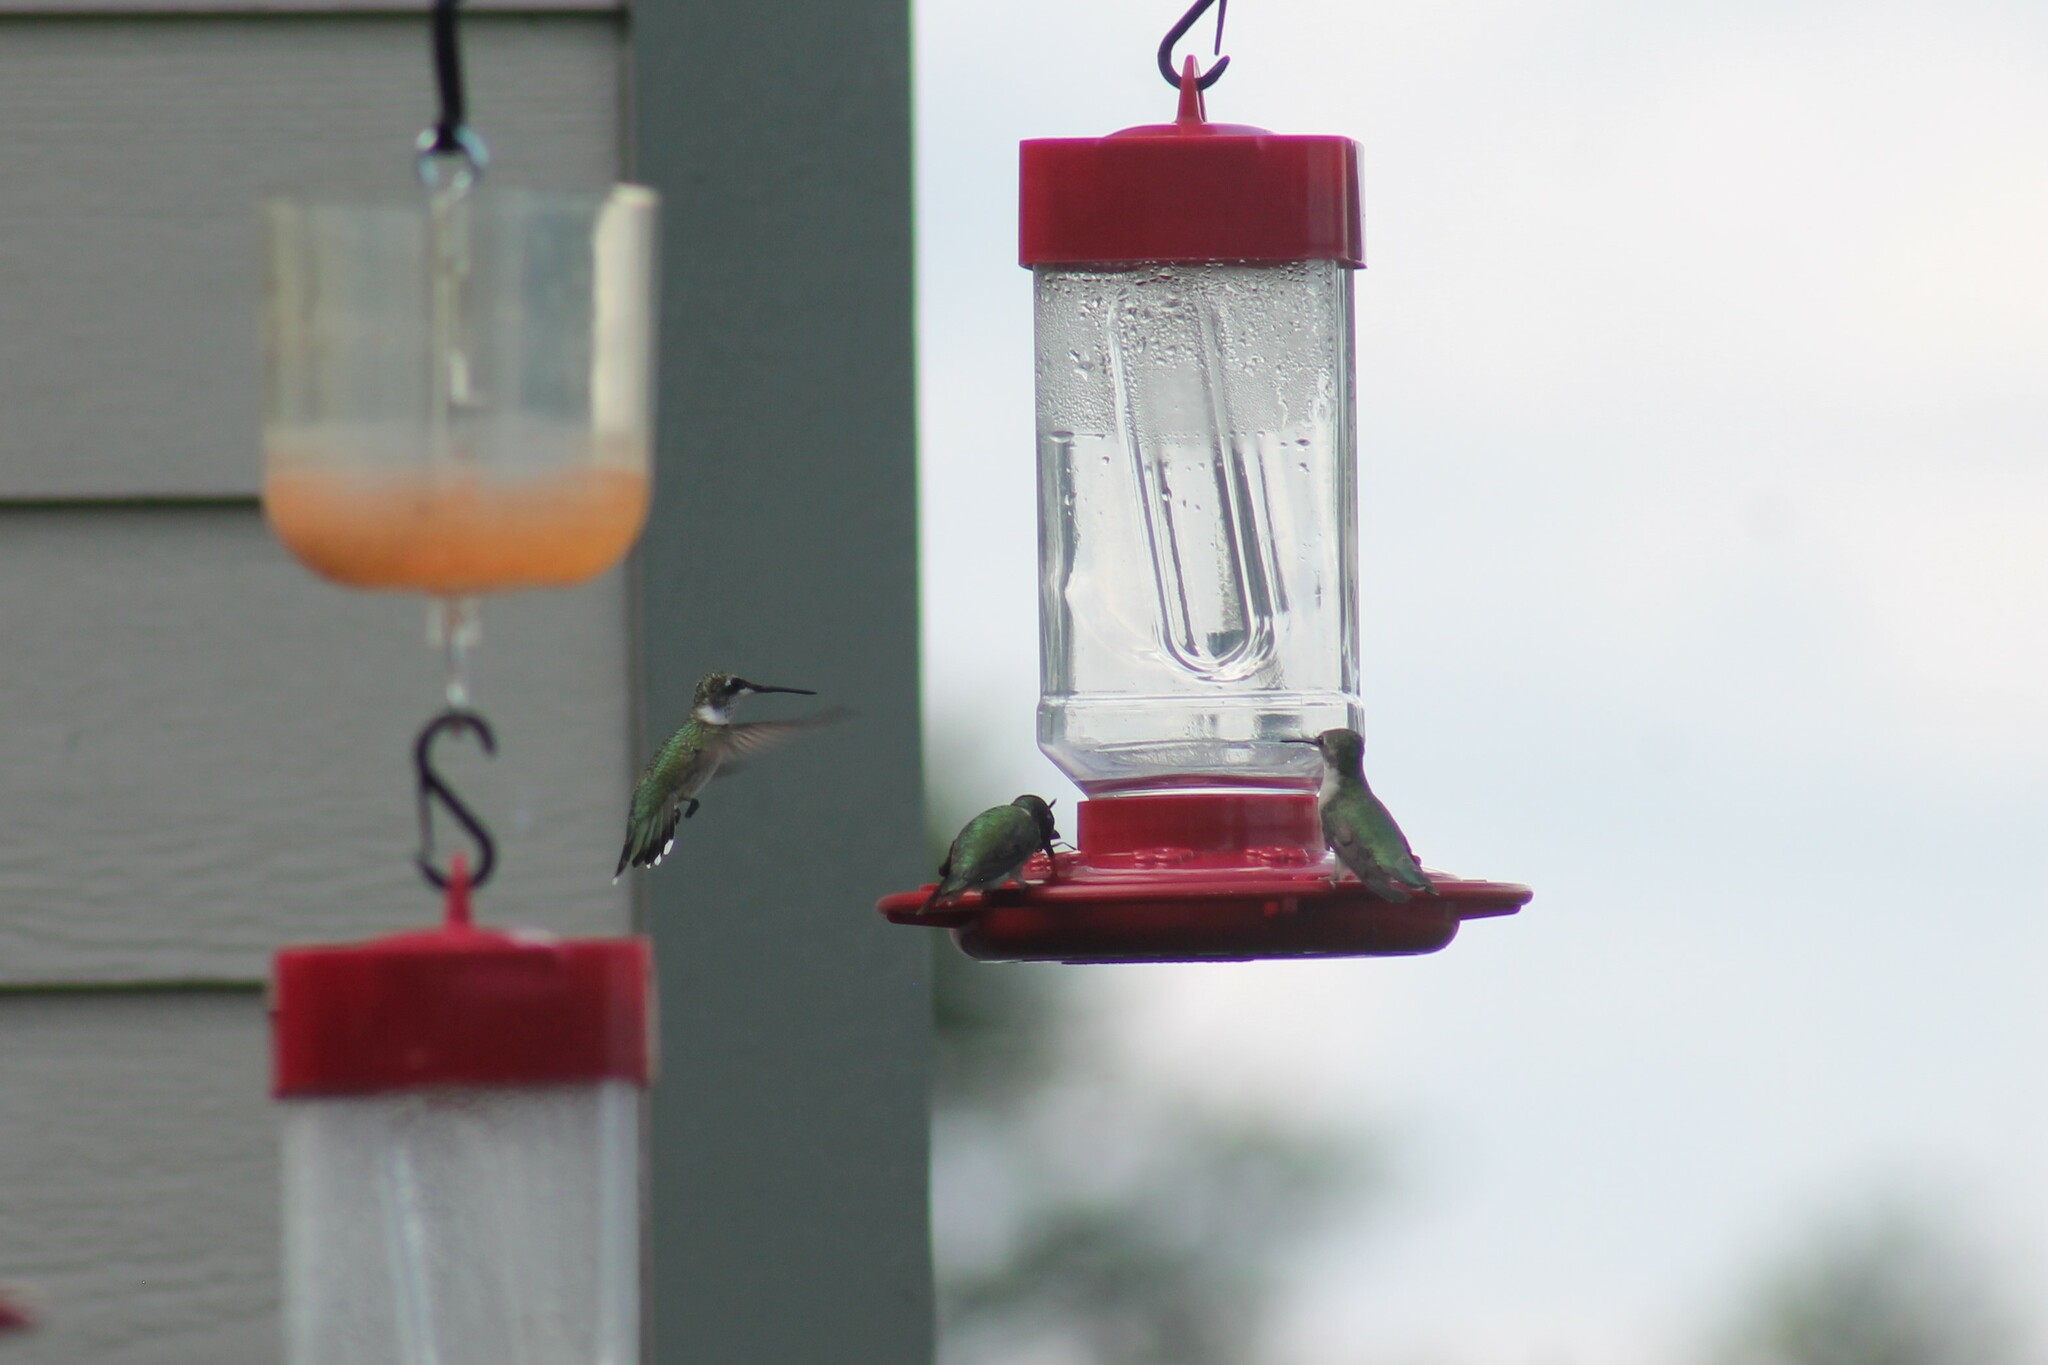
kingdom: Animalia
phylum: Chordata
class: Aves
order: Apodiformes
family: Trochilidae
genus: Archilochus
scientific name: Archilochus colubris
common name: Ruby-throated hummingbird
